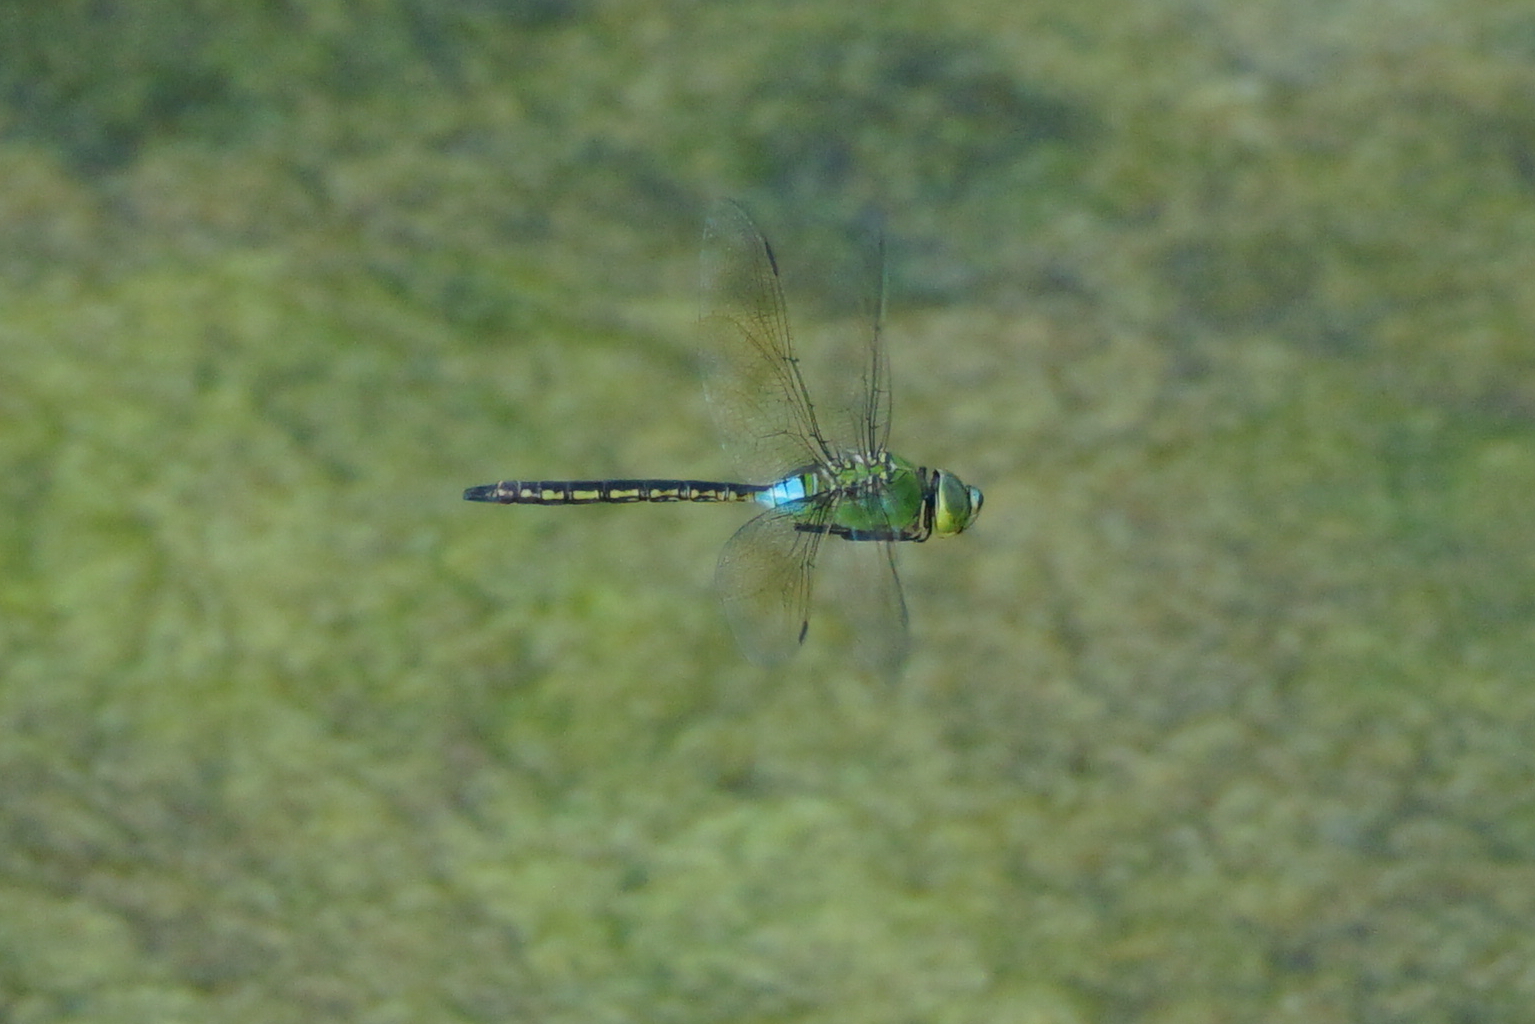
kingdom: Animalia
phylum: Arthropoda
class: Insecta
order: Odonata
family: Aeshnidae
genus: Anax
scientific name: Anax julius
